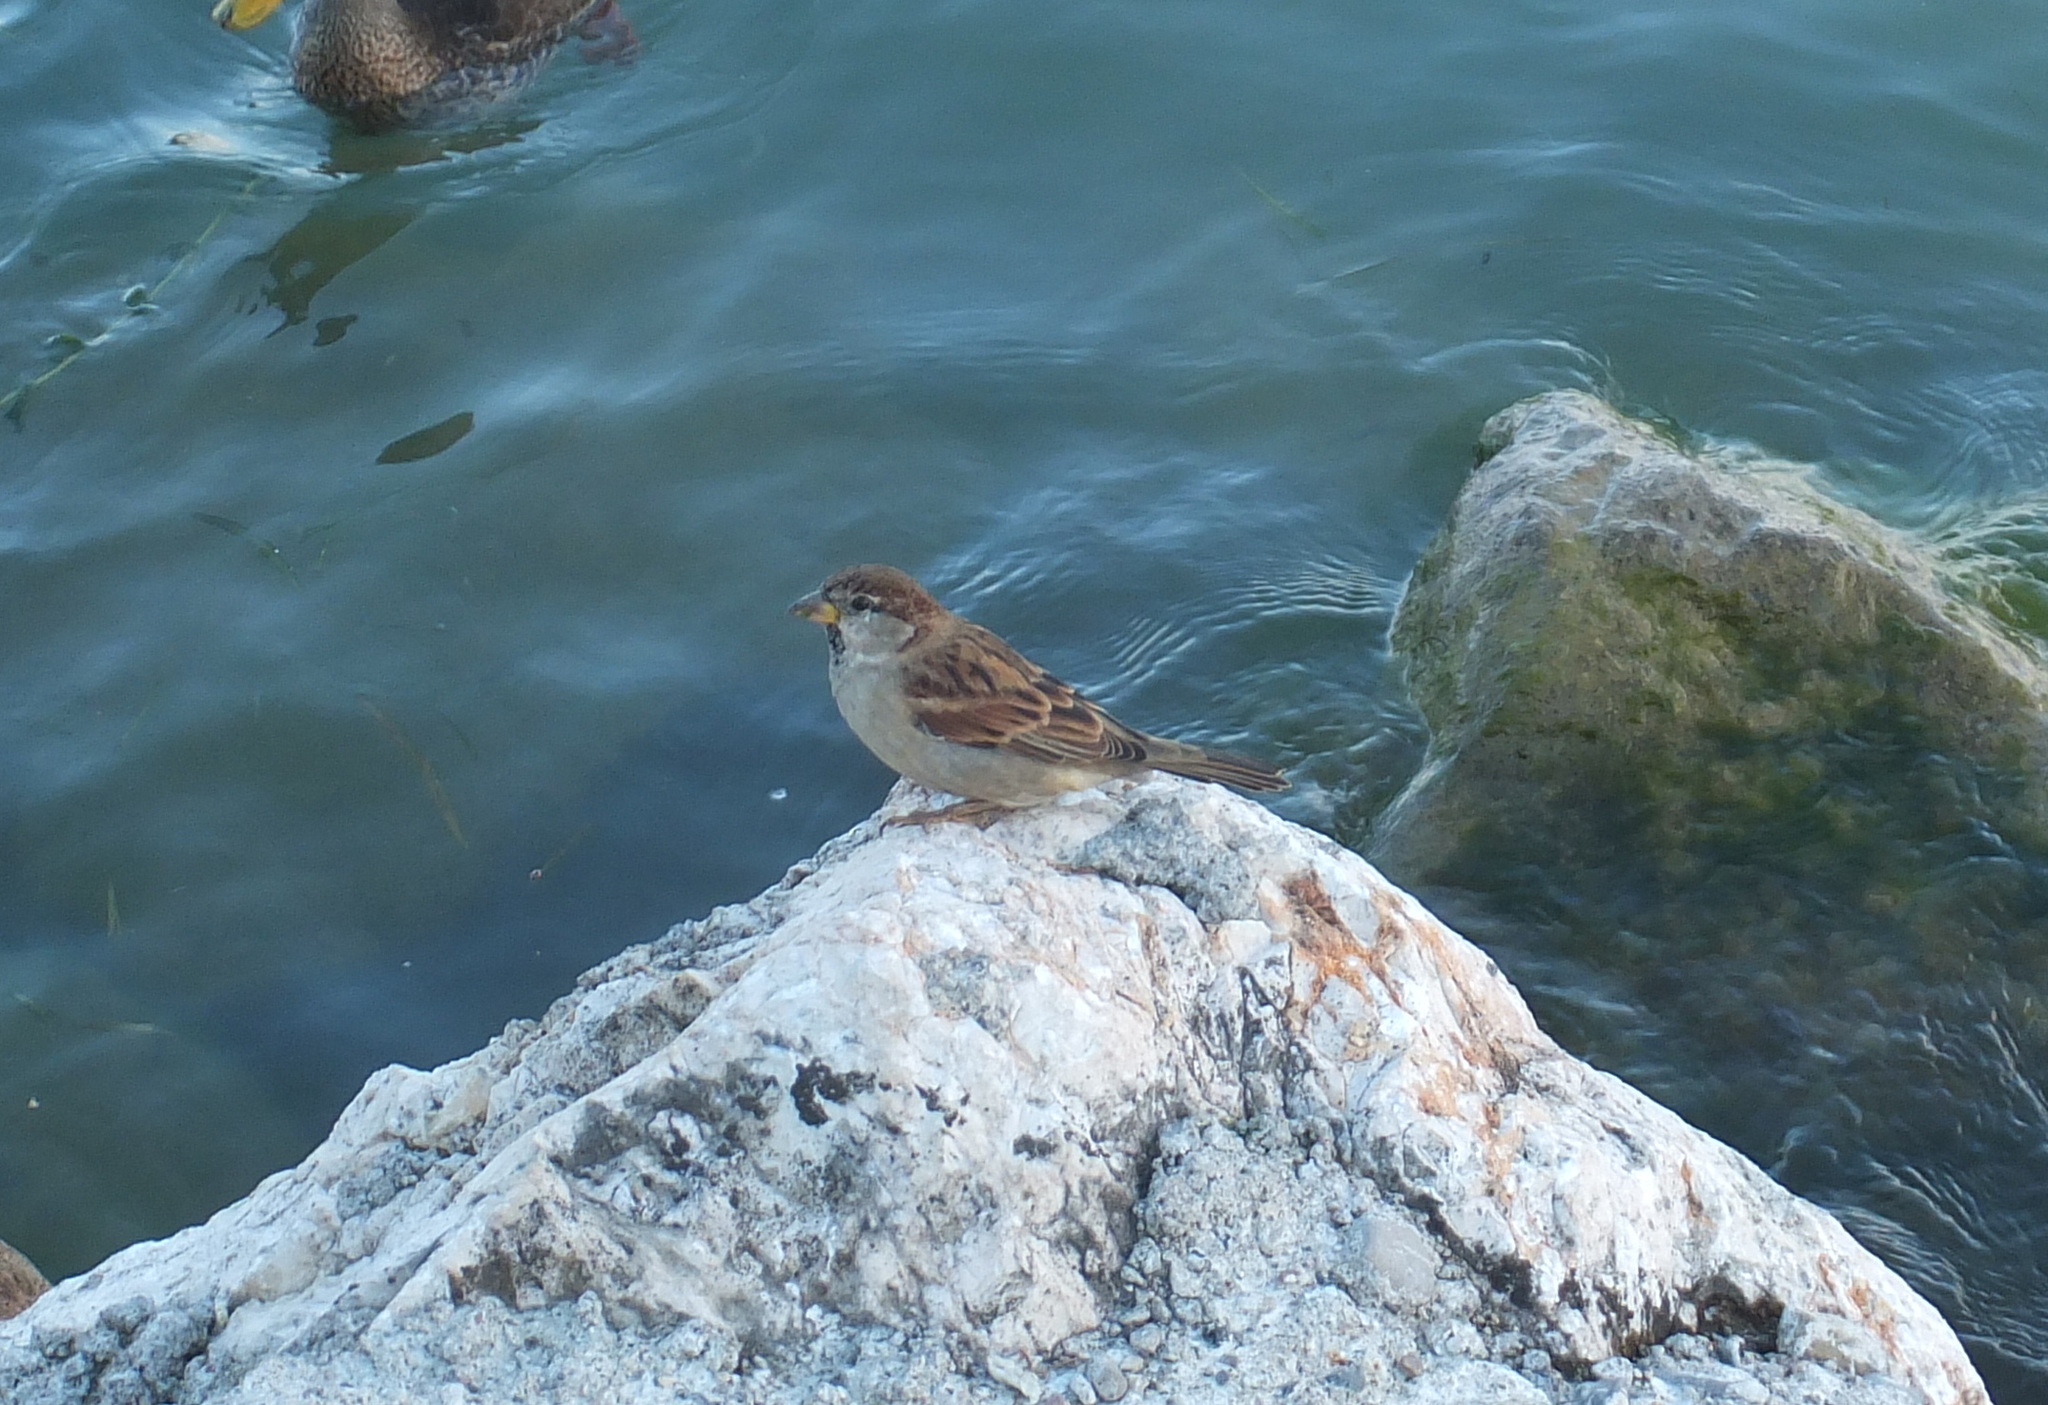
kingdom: Animalia
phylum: Chordata
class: Aves
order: Passeriformes
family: Passeridae
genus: Passer
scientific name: Passer italiae
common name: Italian sparrow
